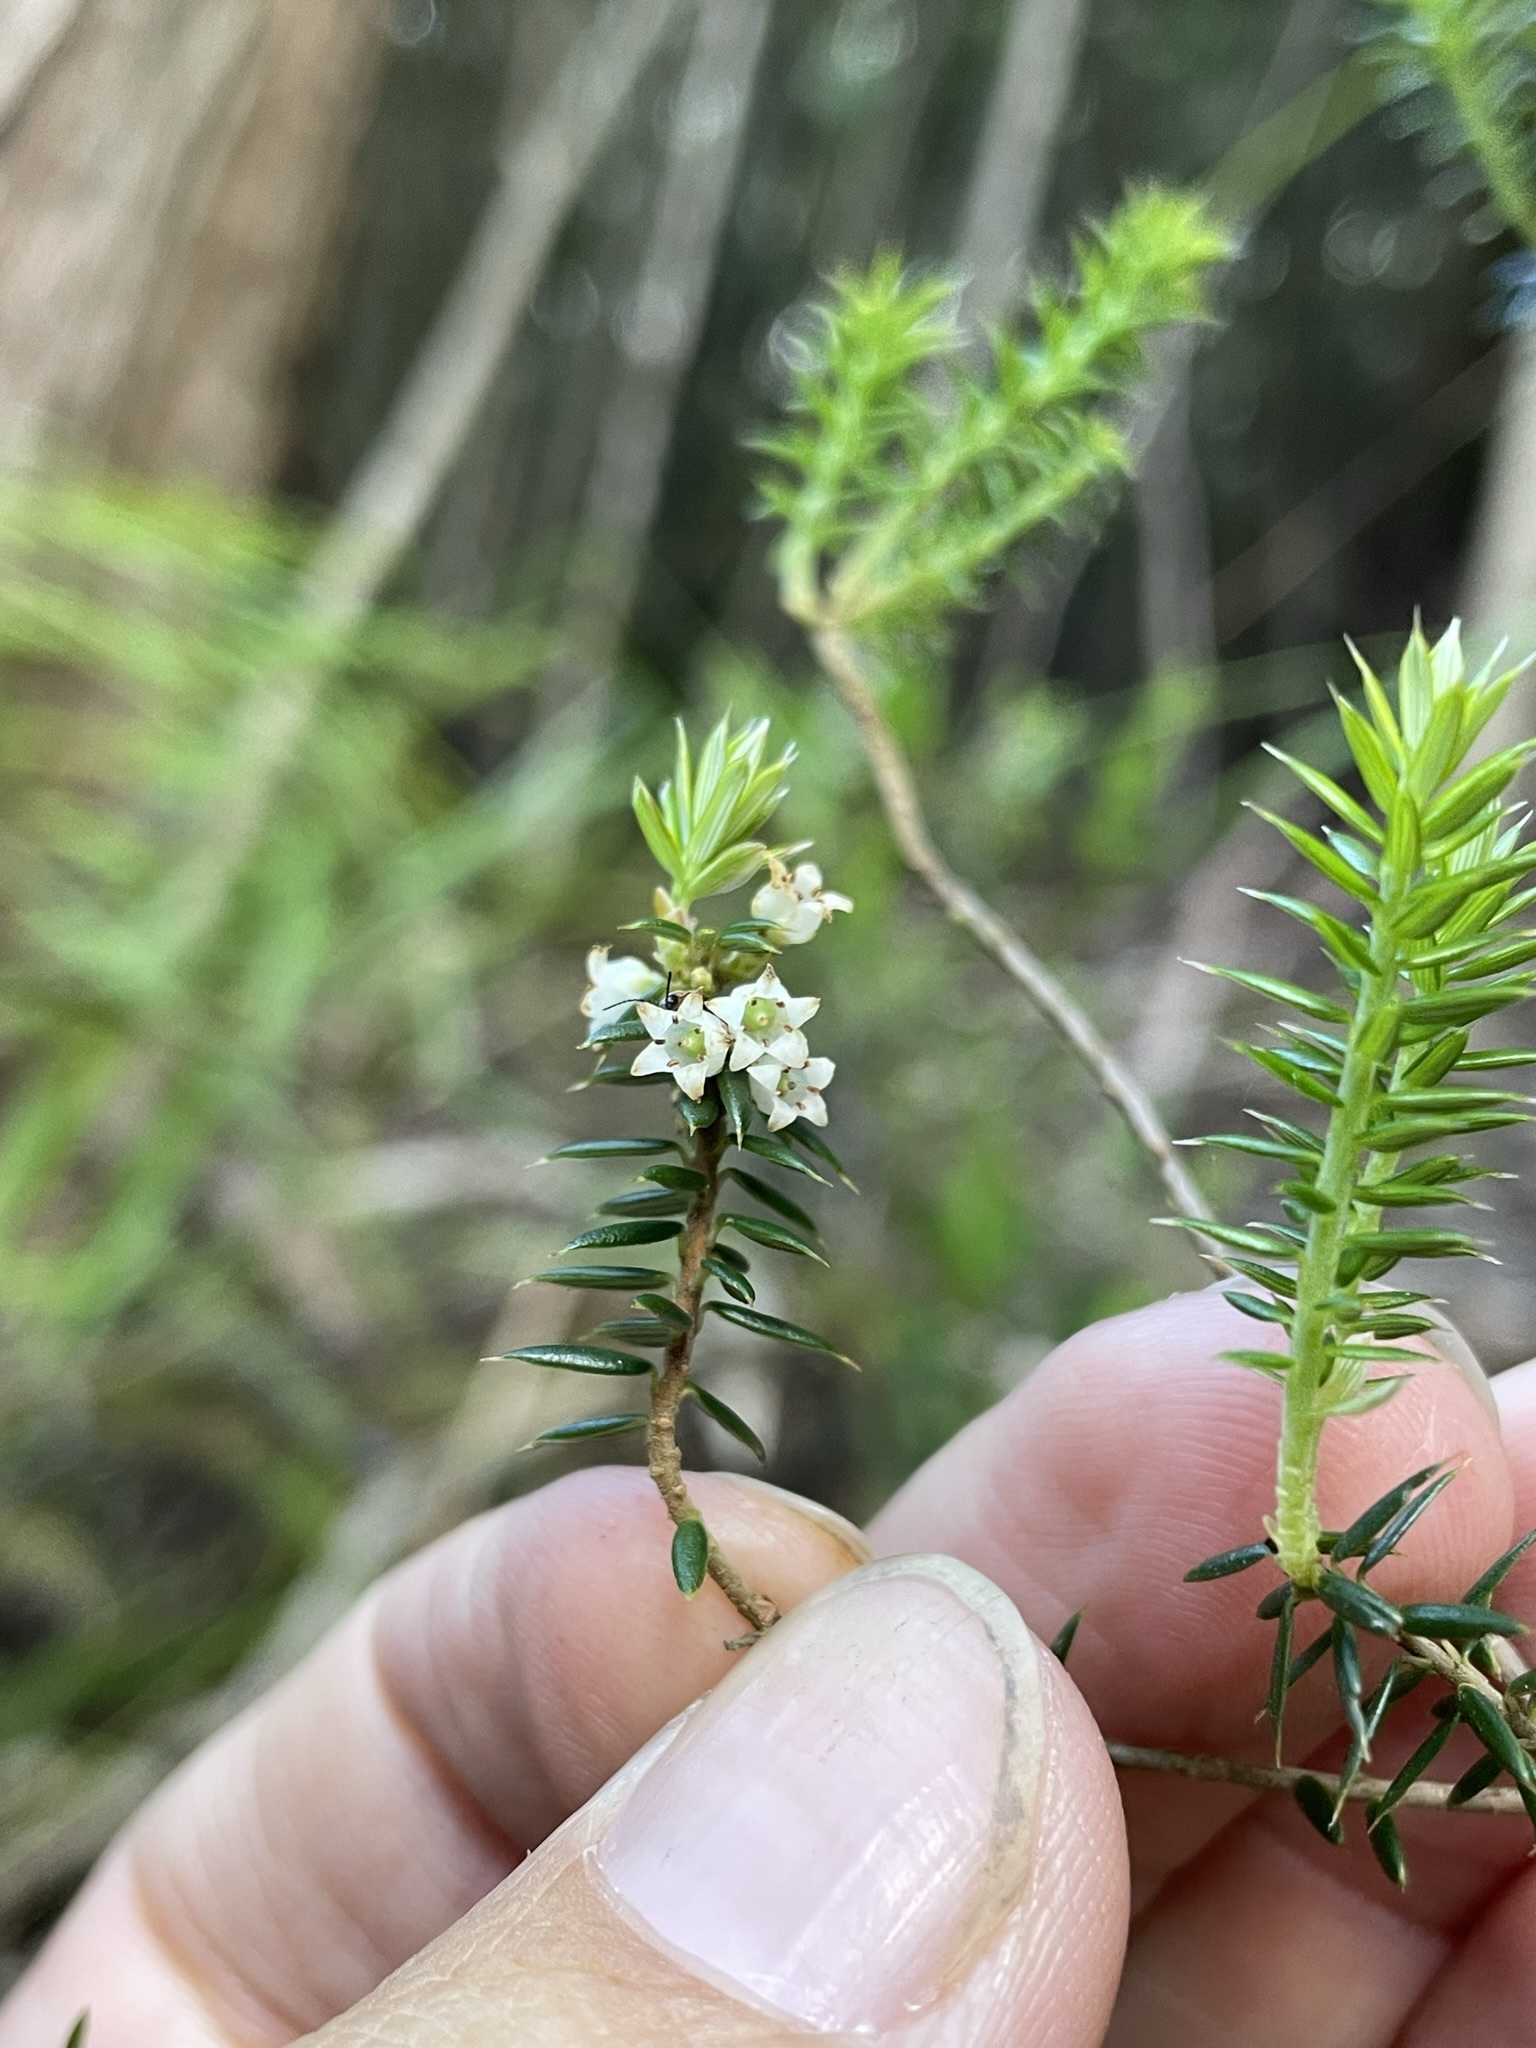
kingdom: Plantae
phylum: Tracheophyta
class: Magnoliopsida
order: Ericales
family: Ericaceae
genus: Leptecophylla
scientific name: Leptecophylla parvifolia
